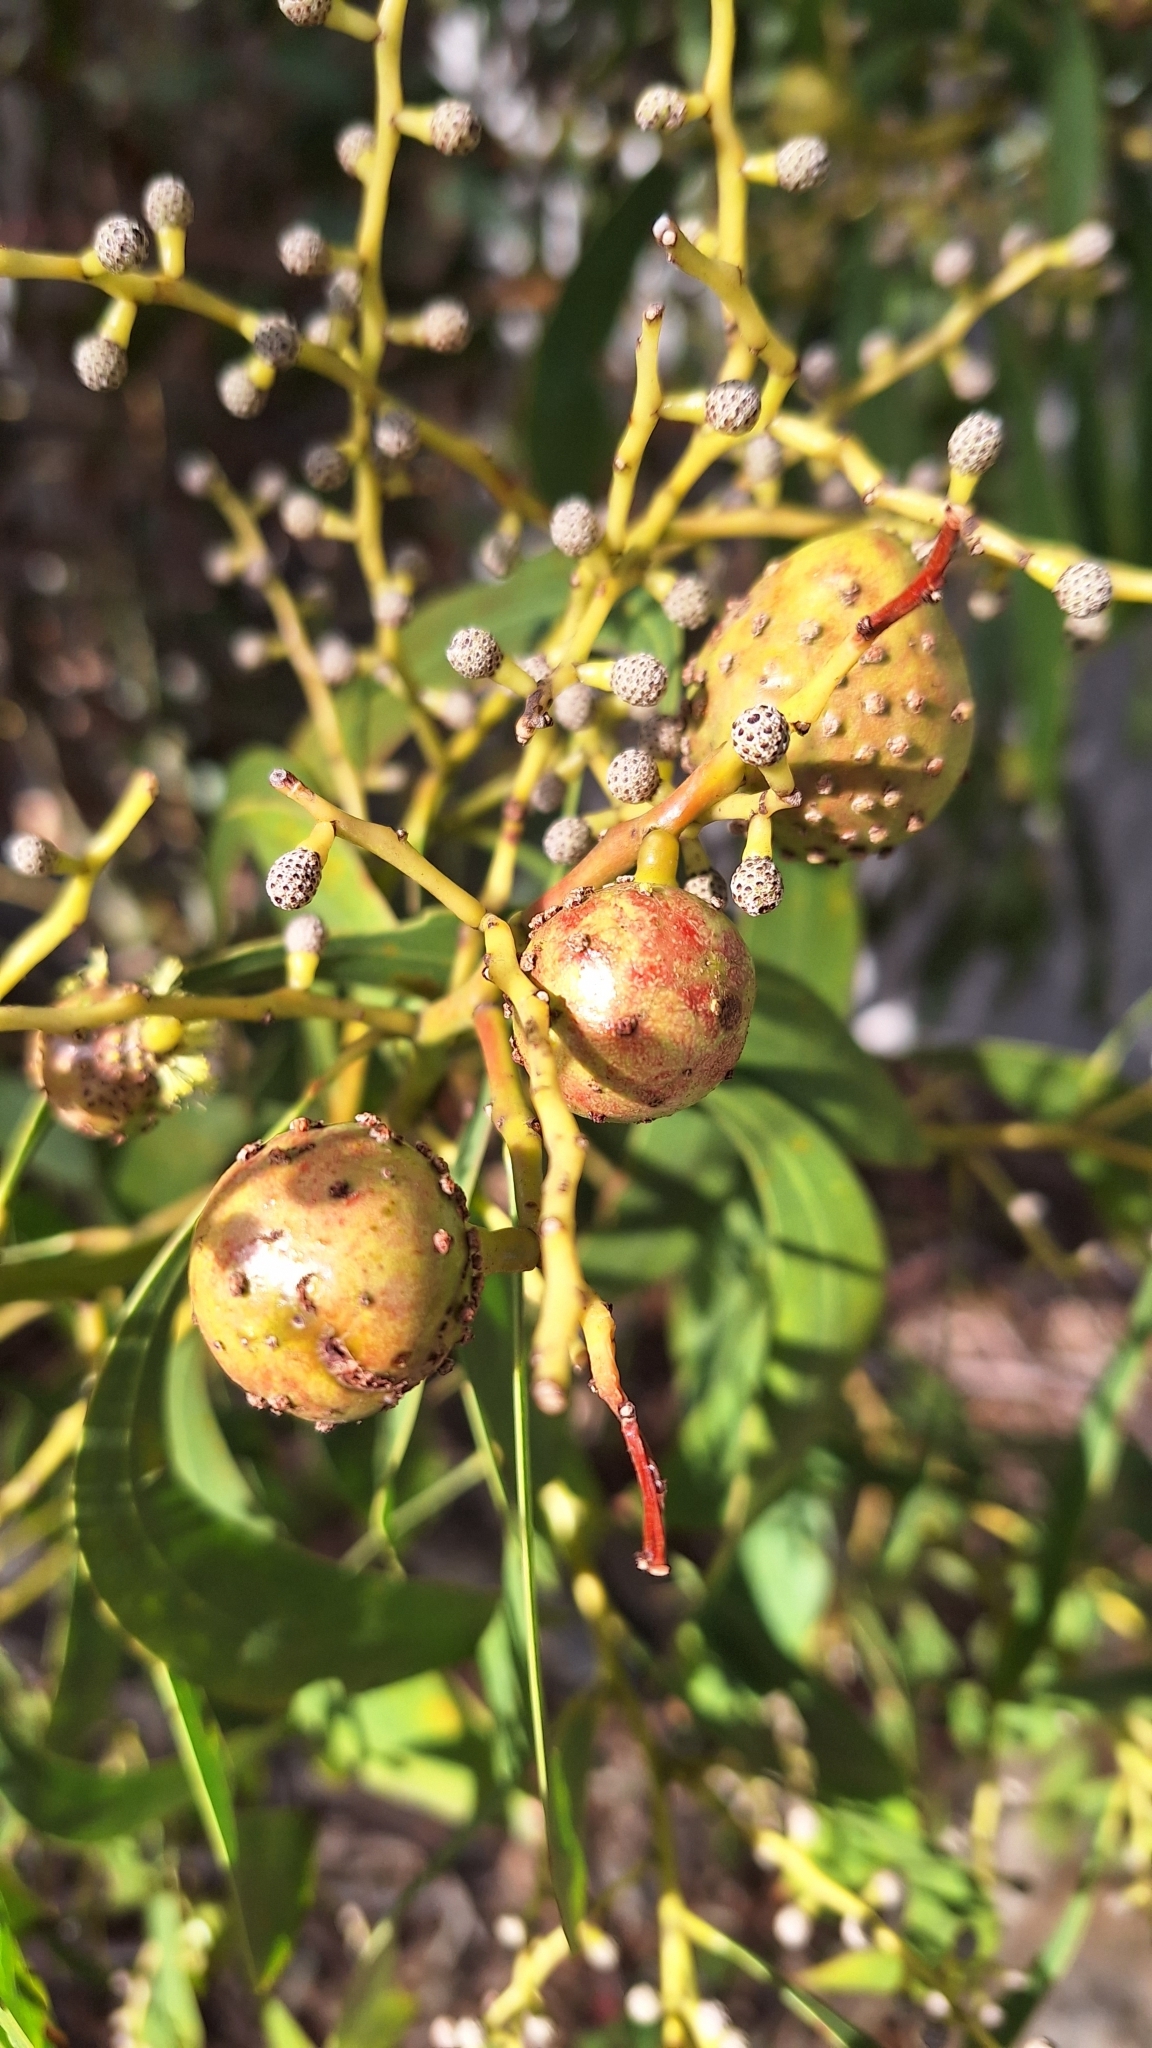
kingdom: Animalia
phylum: Arthropoda
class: Insecta
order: Hymenoptera
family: Pteromalidae
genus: Trichilogaster
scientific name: Trichilogaster signiventris
